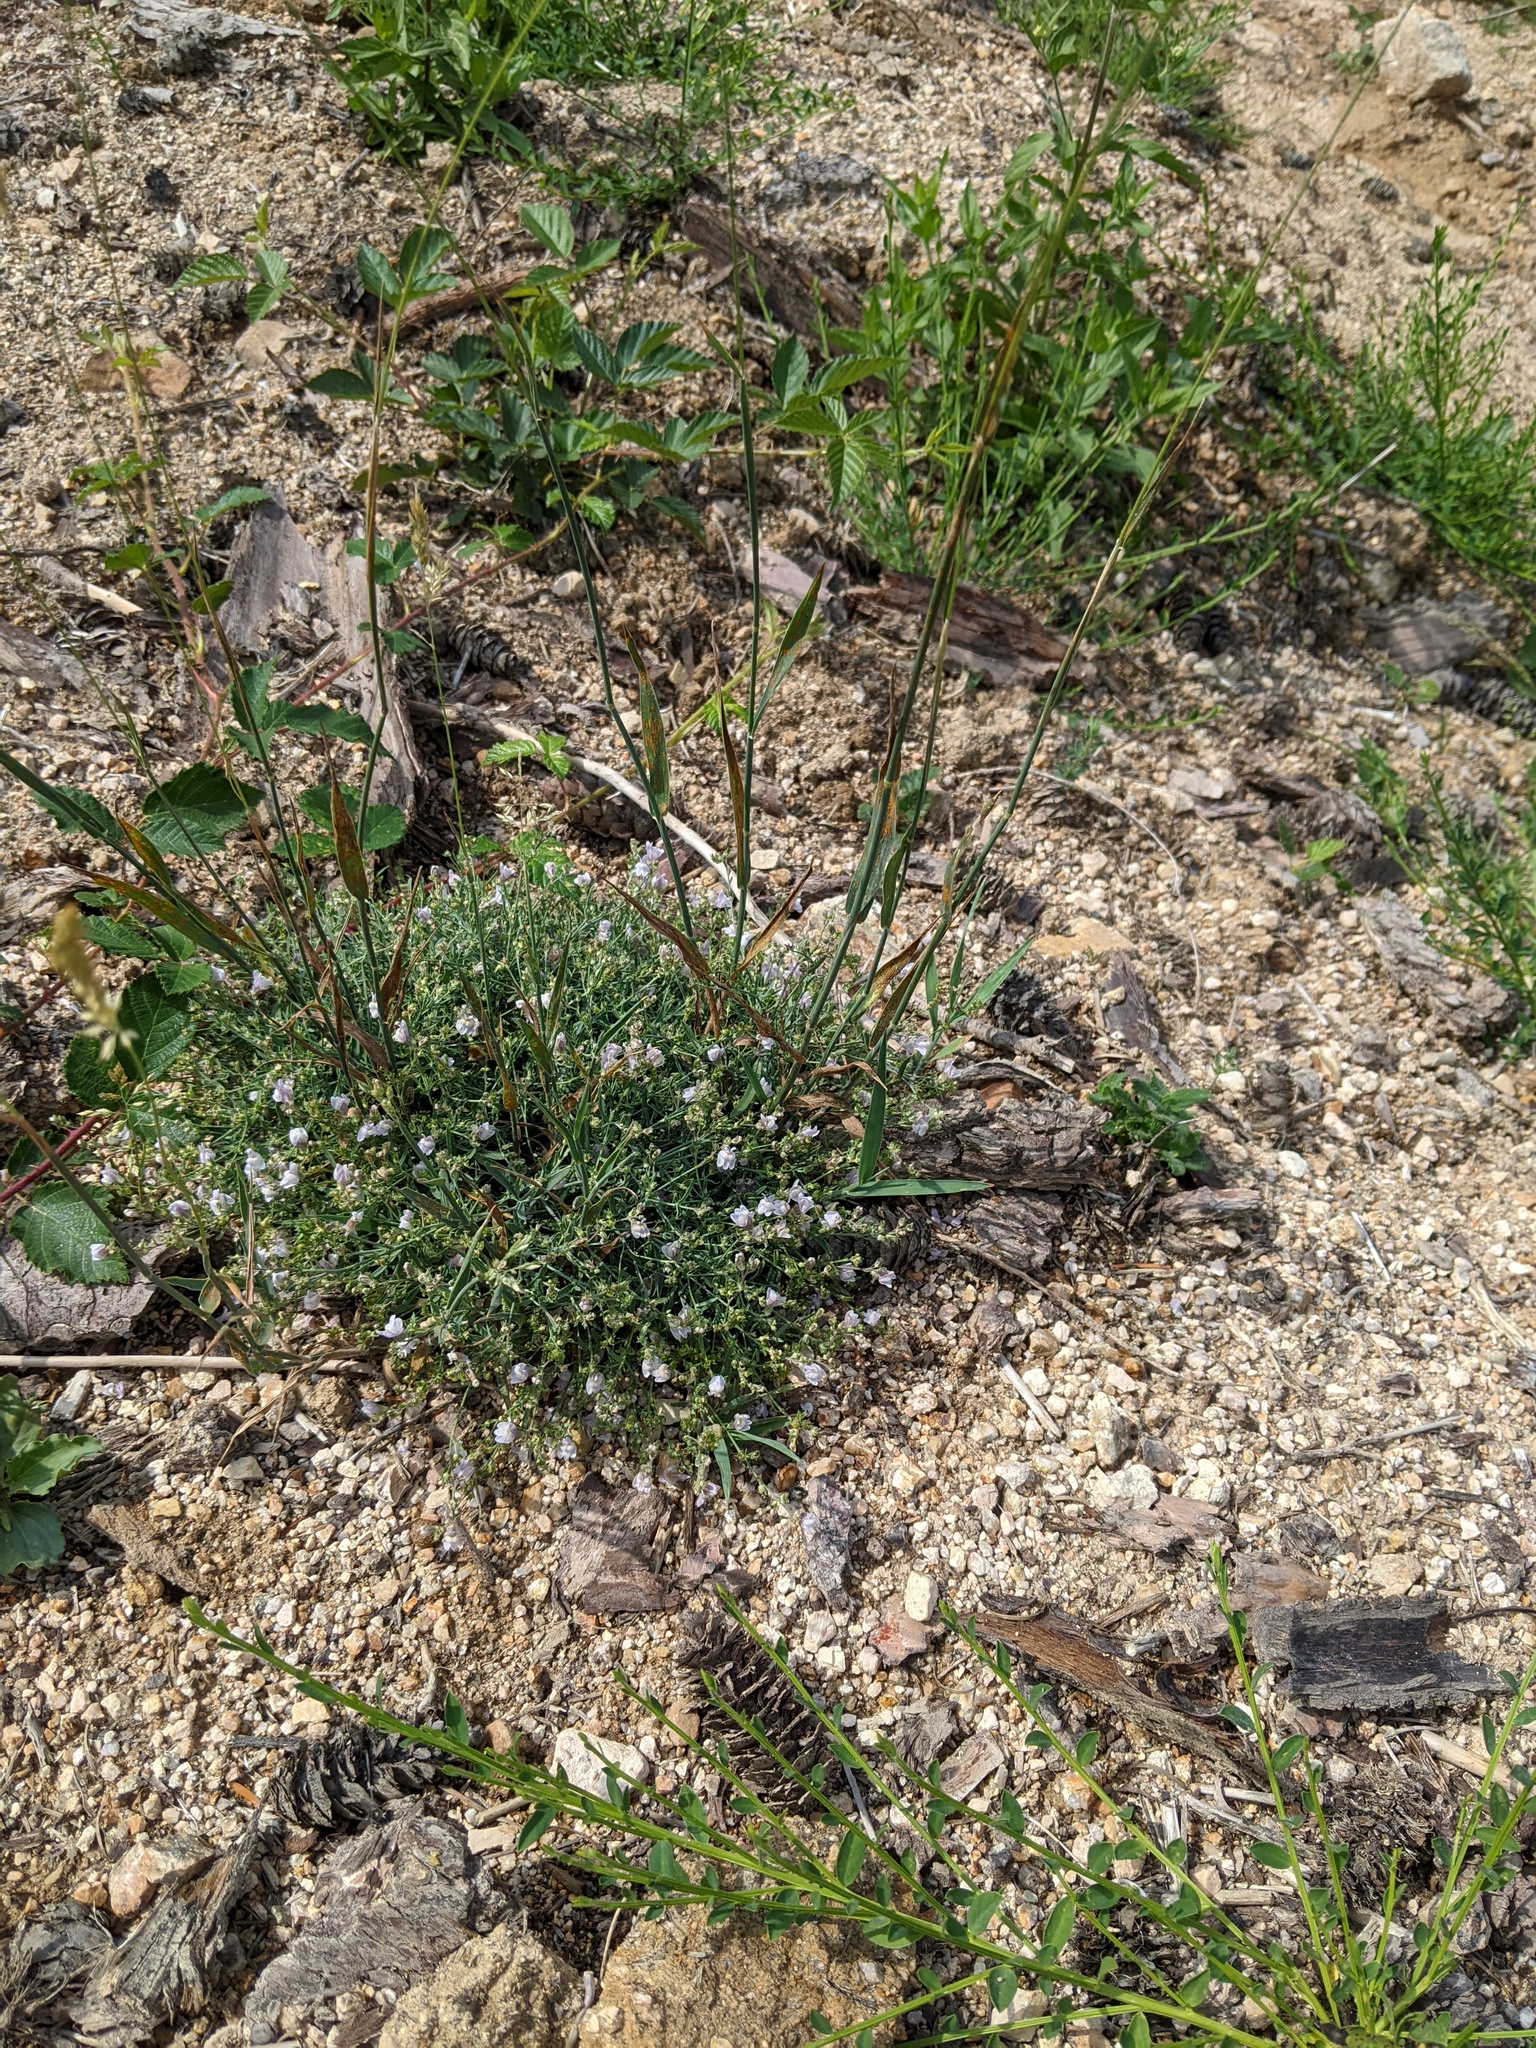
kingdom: Plantae
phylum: Tracheophyta
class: Magnoliopsida
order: Lamiales
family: Plantaginaceae
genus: Linaria
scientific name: Linaria repens
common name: Pale toadflax
